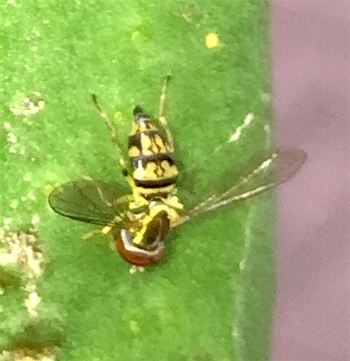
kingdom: Animalia
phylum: Arthropoda
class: Insecta
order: Diptera
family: Syrphidae
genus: Toxomerus
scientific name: Toxomerus geminatus
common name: Eastern calligrapher
